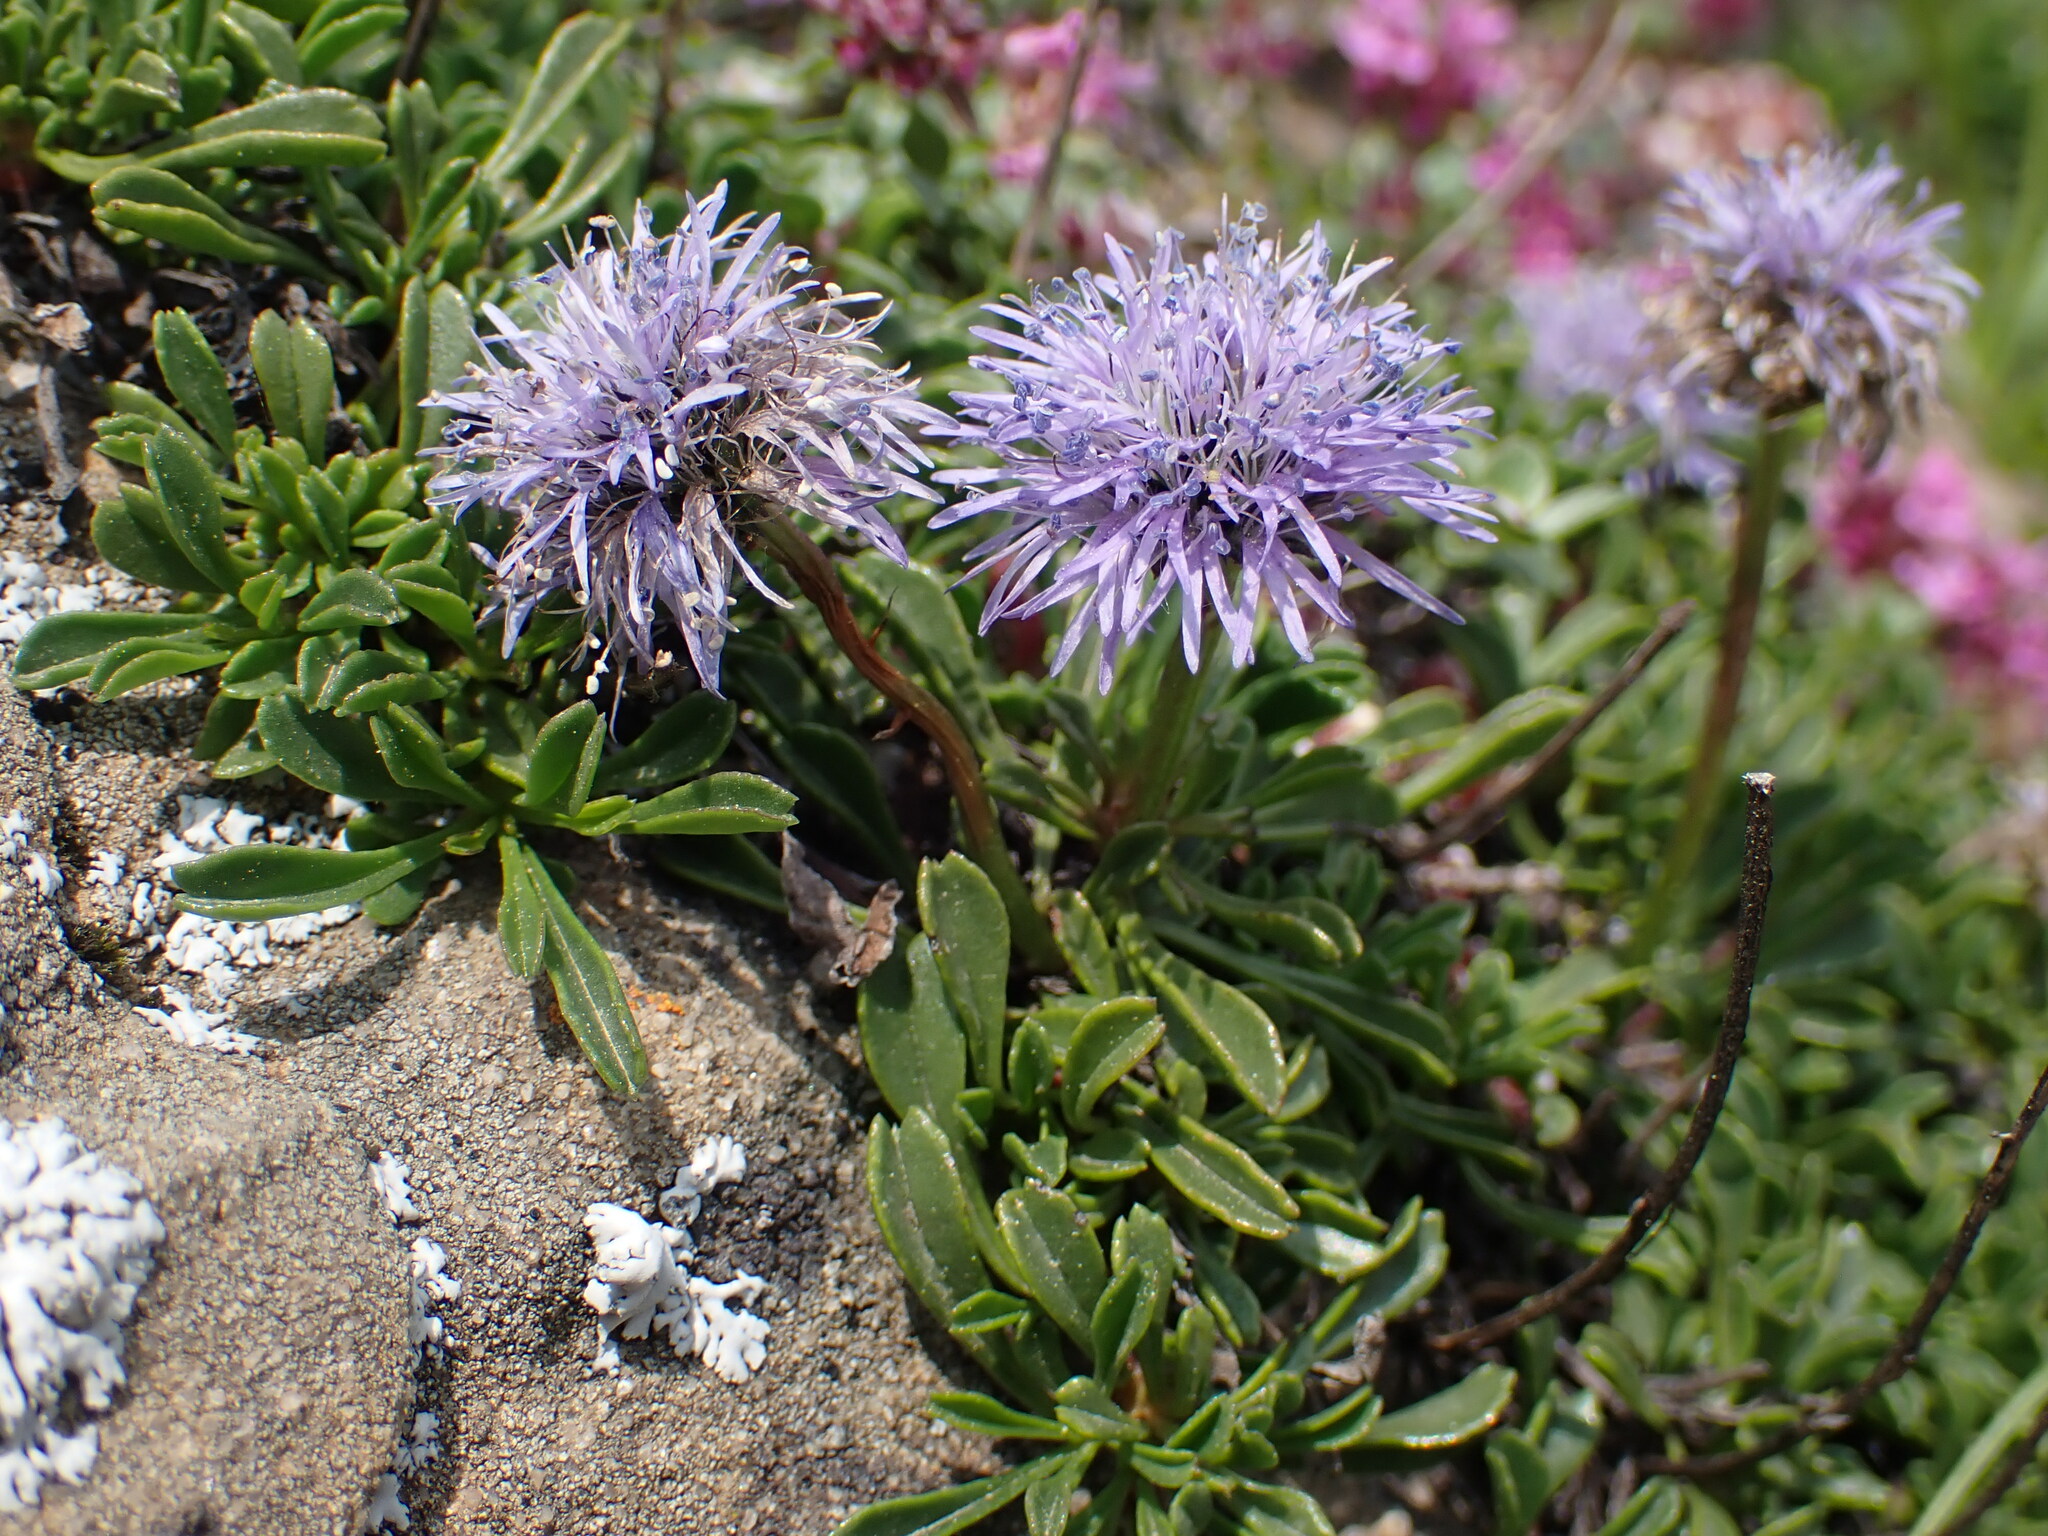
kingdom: Plantae
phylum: Tracheophyta
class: Magnoliopsida
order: Lamiales
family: Plantaginaceae
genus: Globularia
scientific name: Globularia cordifolia
